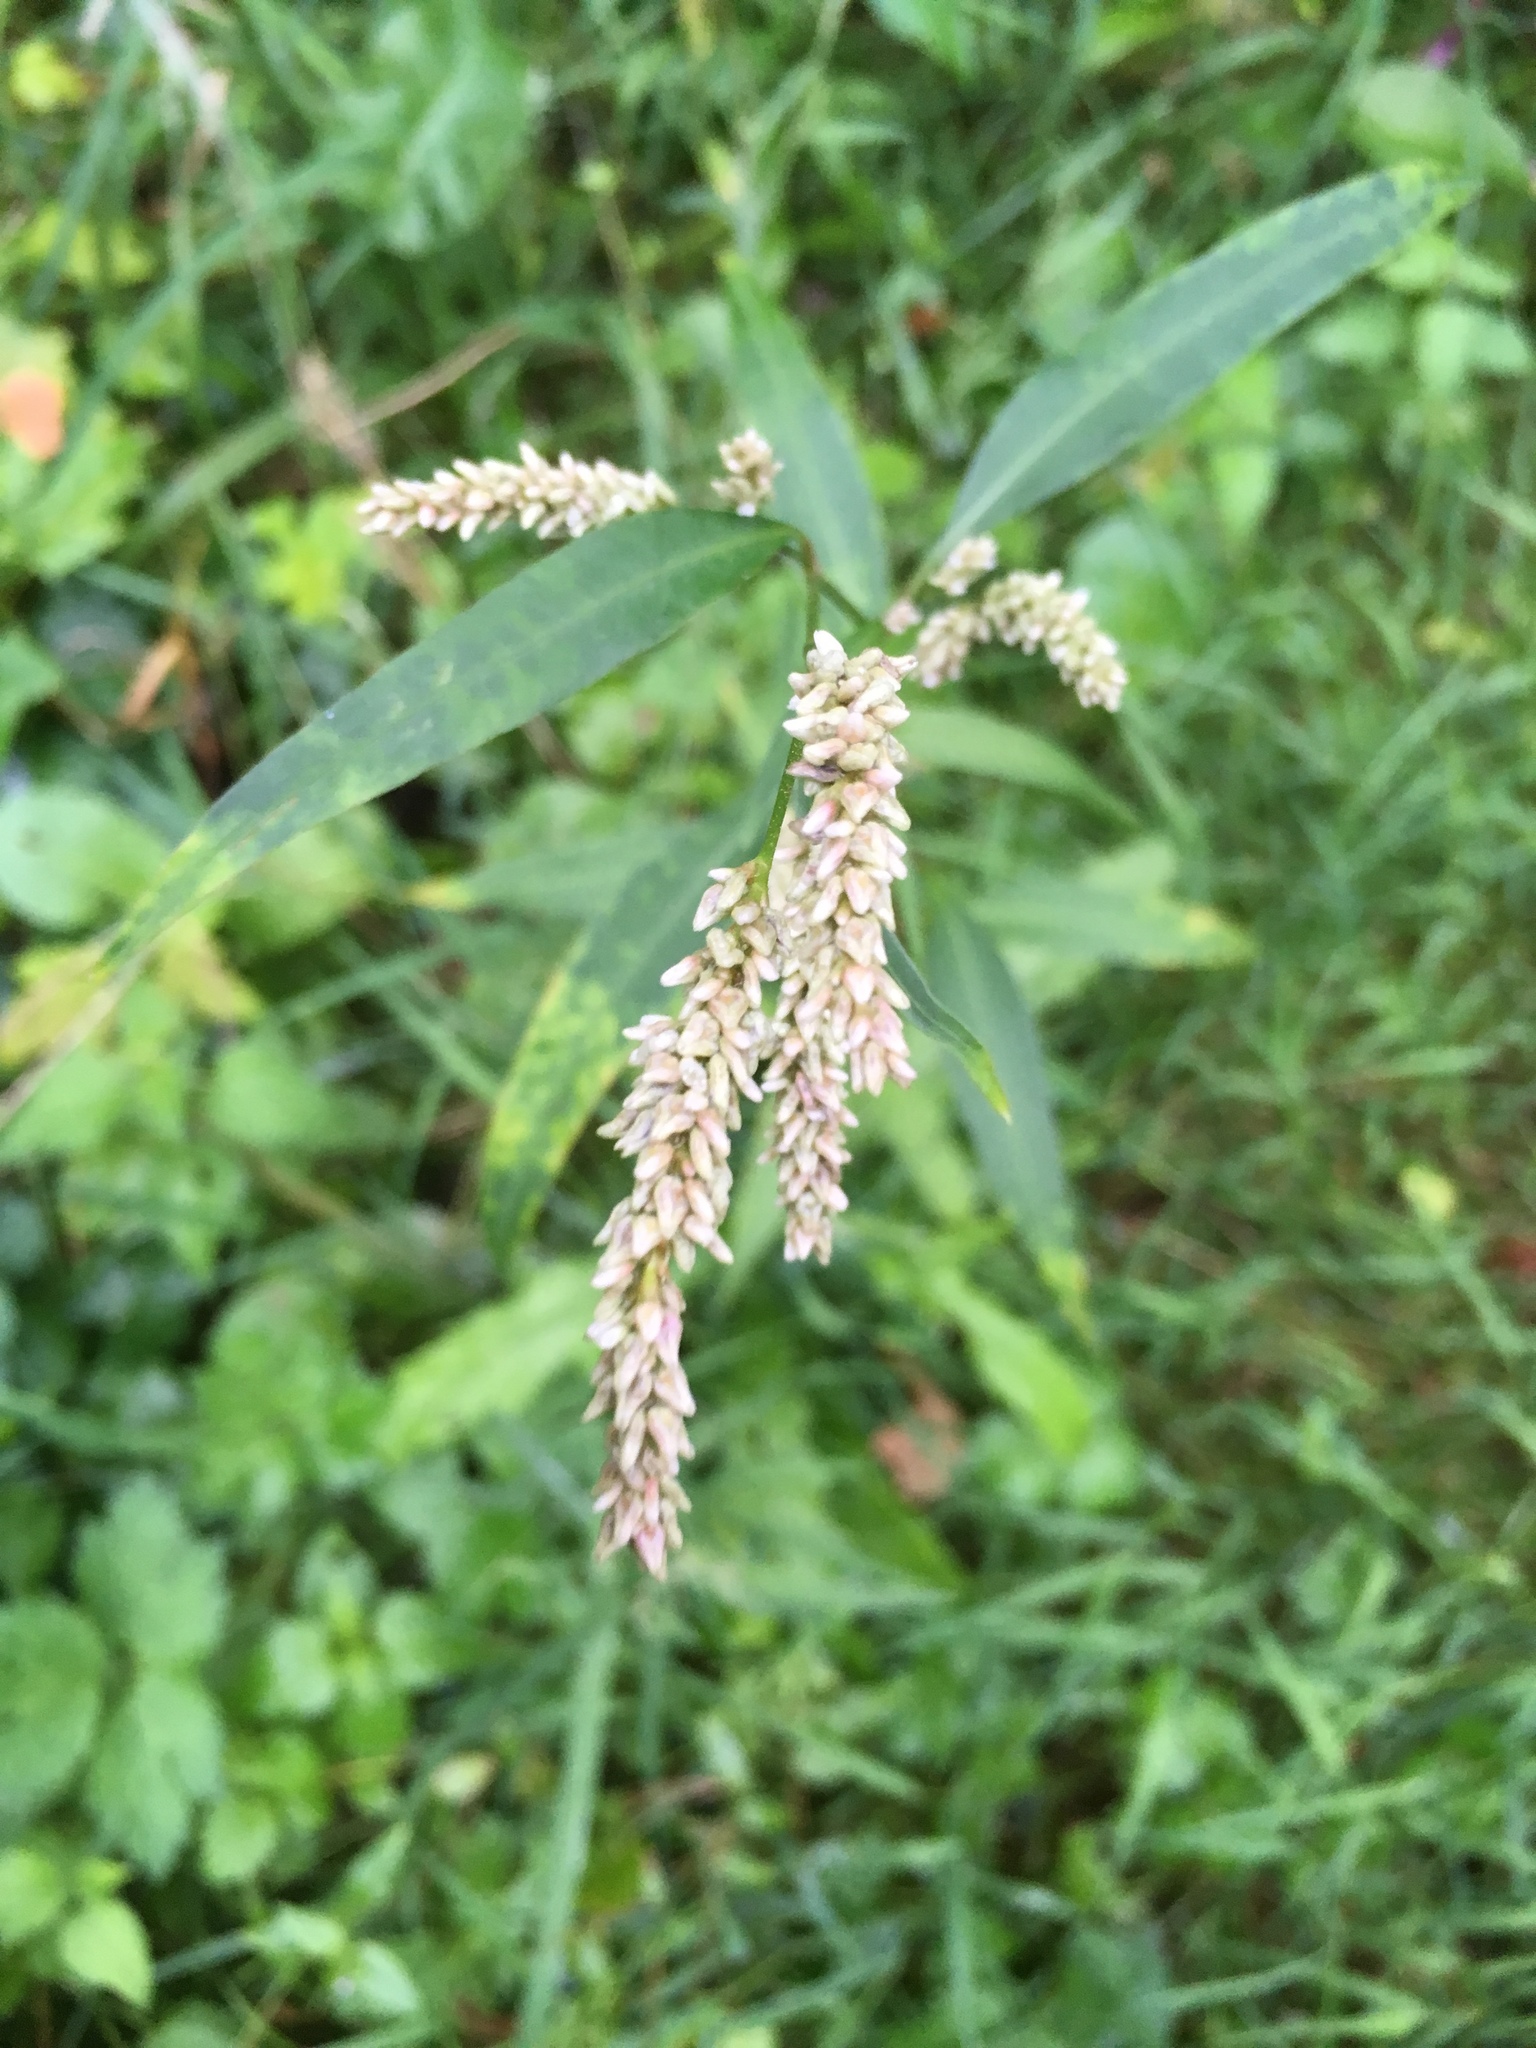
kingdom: Plantae
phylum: Tracheophyta
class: Magnoliopsida
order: Caryophyllales
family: Polygonaceae
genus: Persicaria
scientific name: Persicaria lapathifolia
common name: Curlytop knotweed
